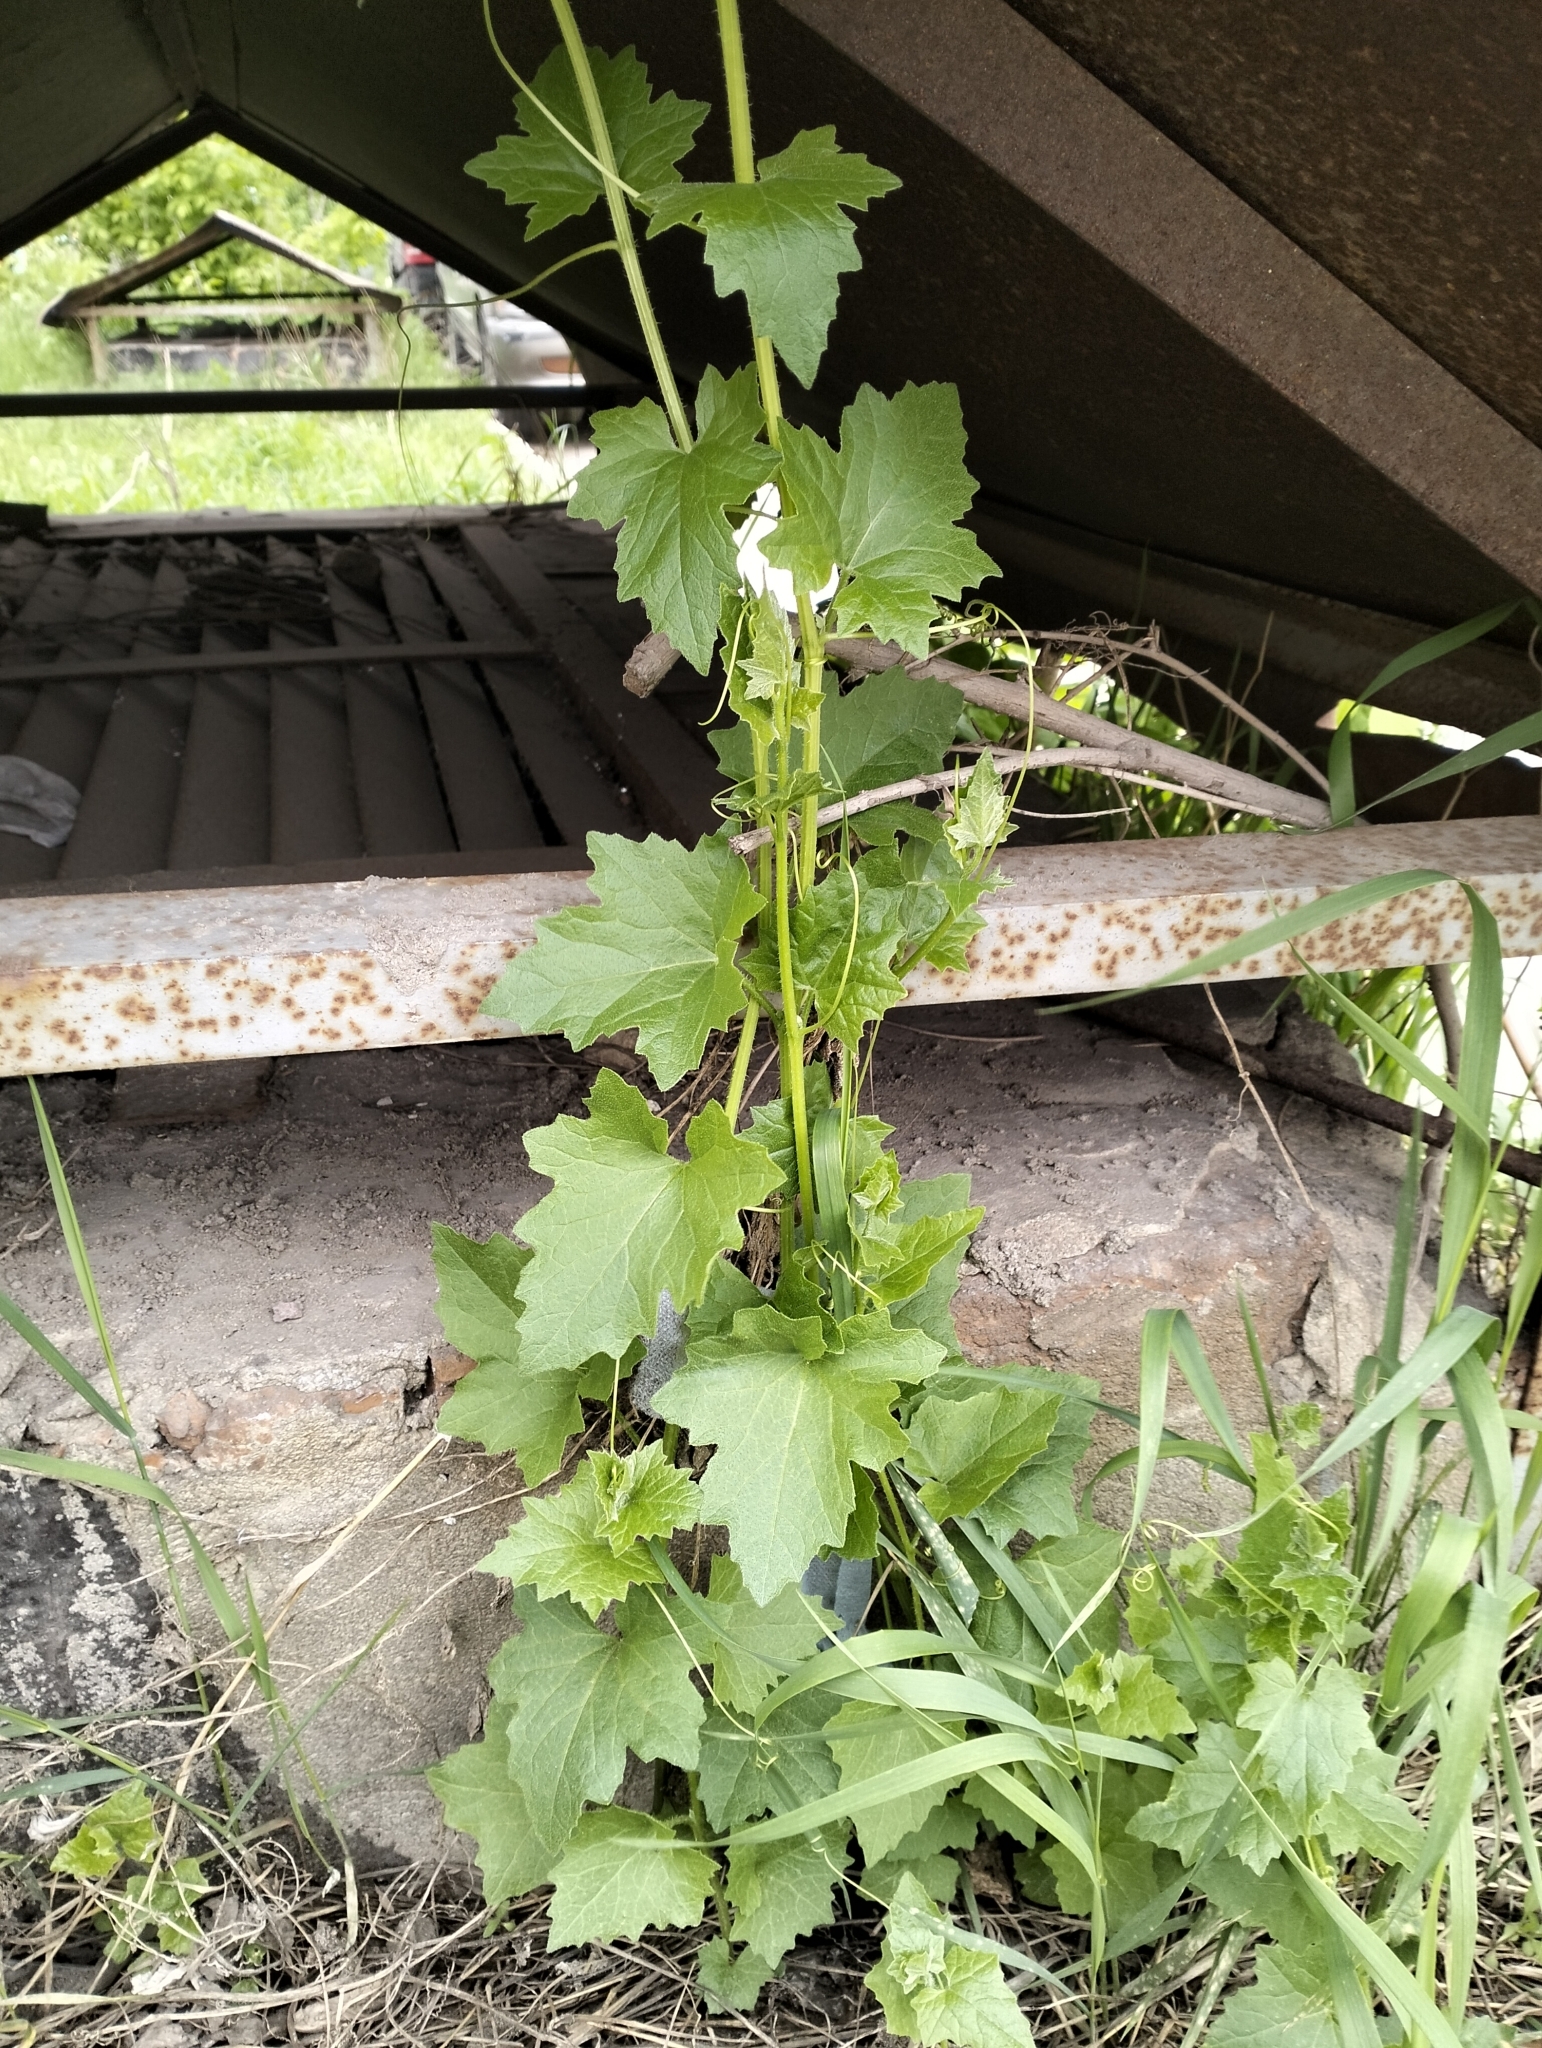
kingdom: Plantae
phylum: Tracheophyta
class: Magnoliopsida
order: Cucurbitales
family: Cucurbitaceae
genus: Bryonia
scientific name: Bryonia alba
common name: White bryony
